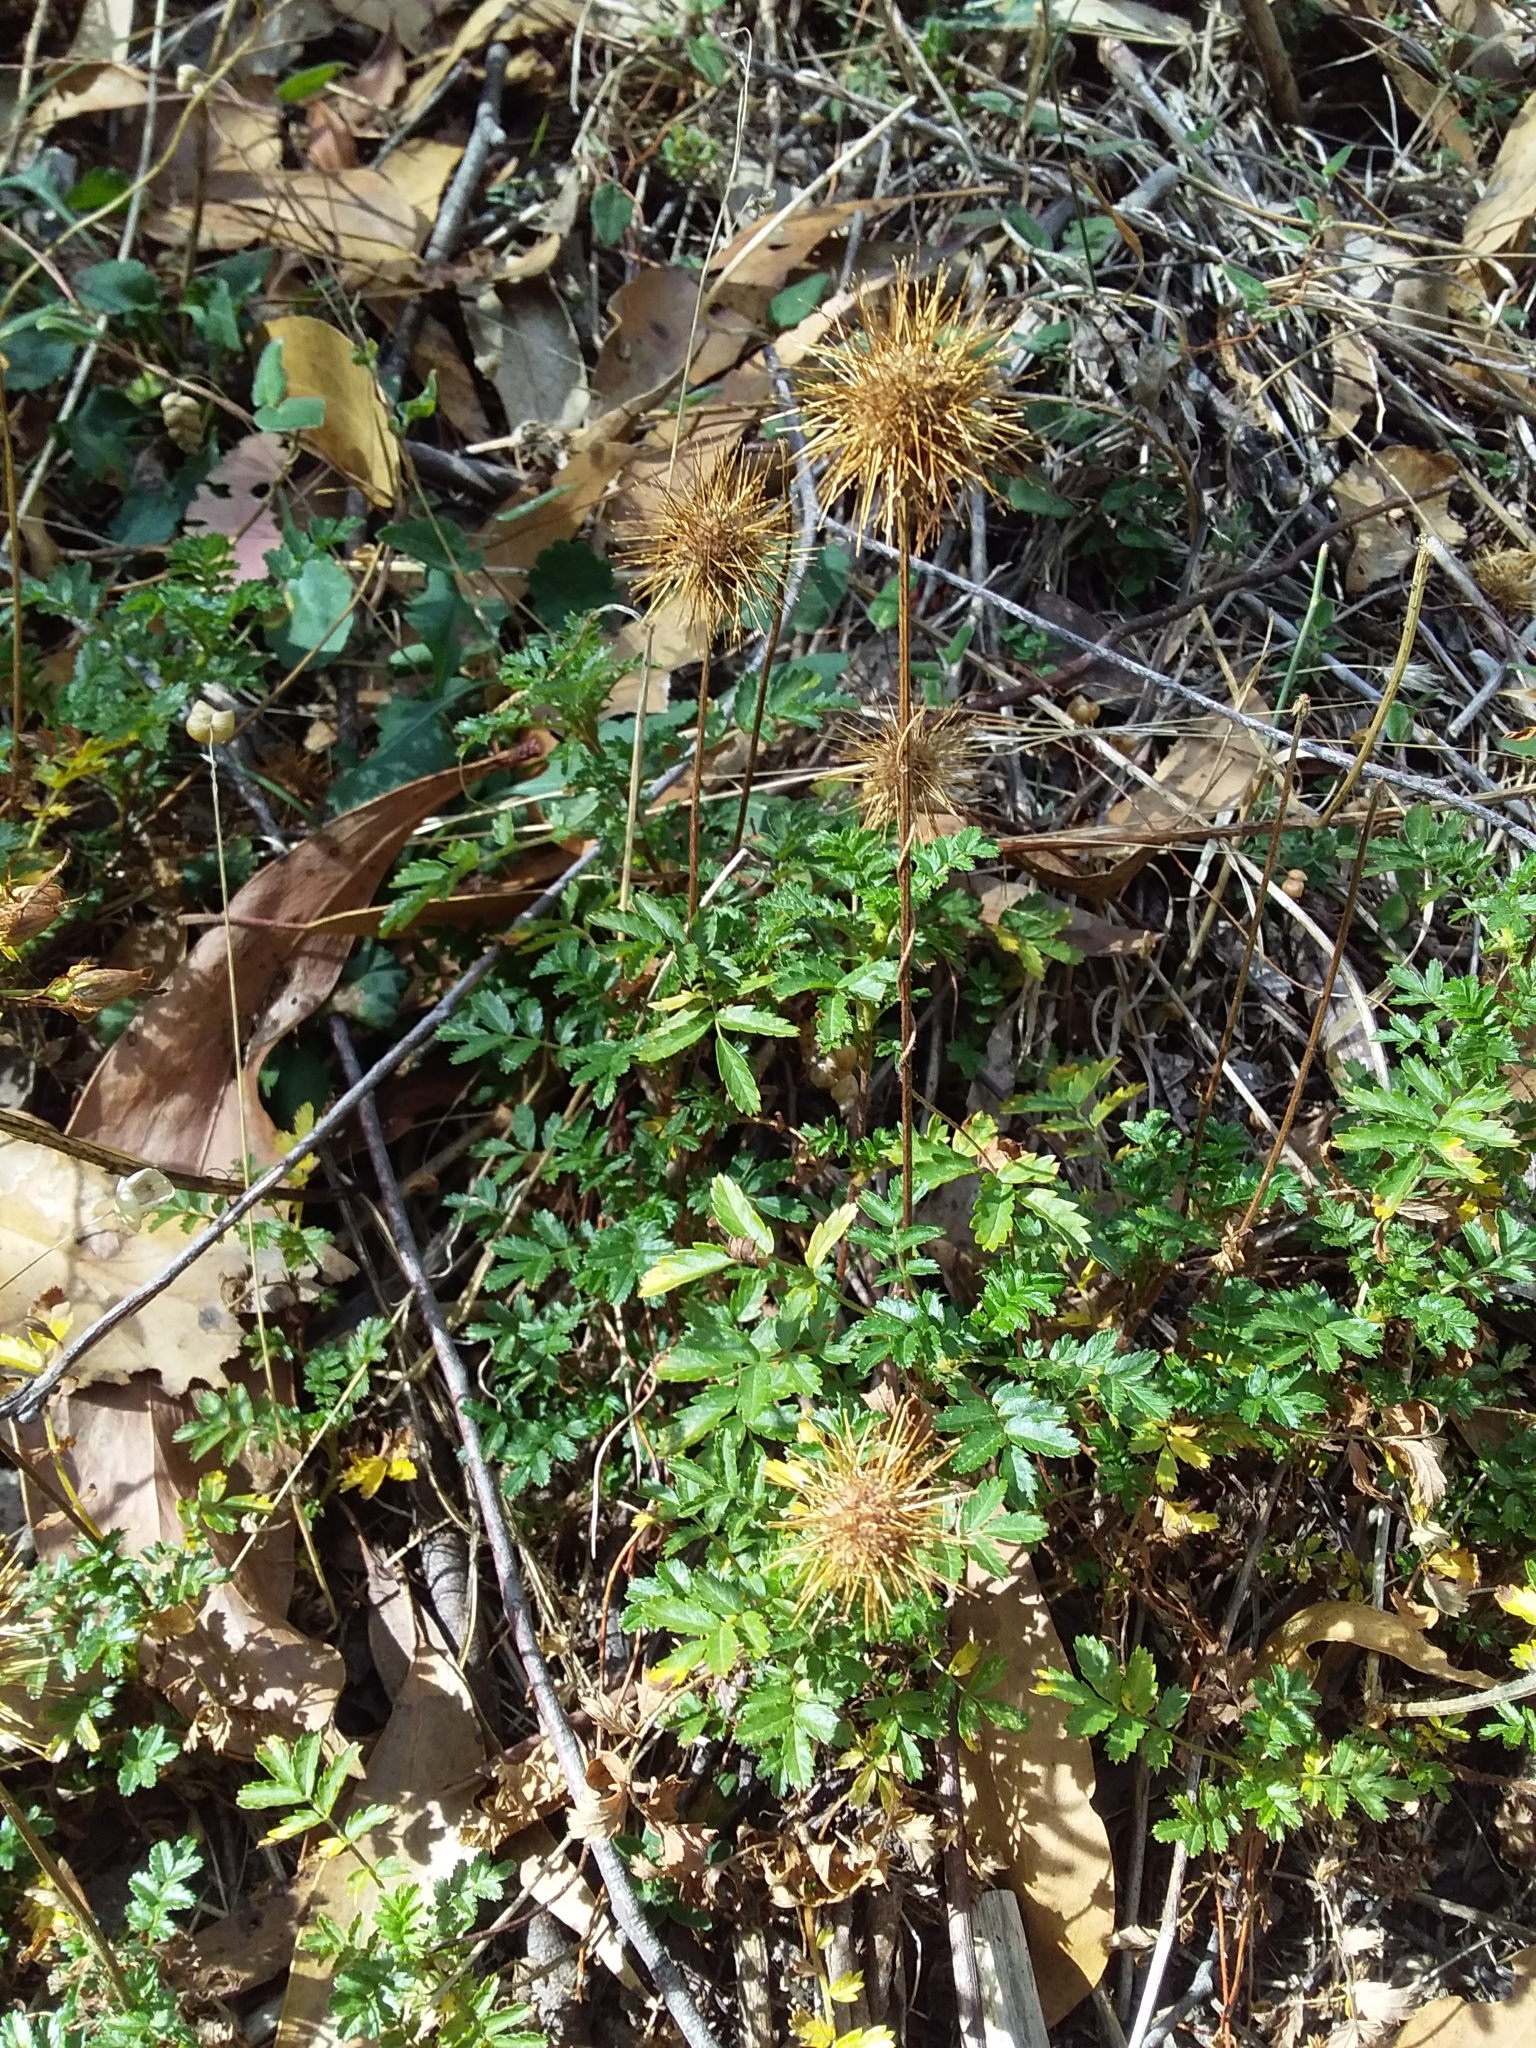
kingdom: Plantae
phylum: Tracheophyta
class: Magnoliopsida
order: Rosales
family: Rosaceae
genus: Acaena
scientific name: Acaena novae-zelandiae
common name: Pirri-pirri-bur
